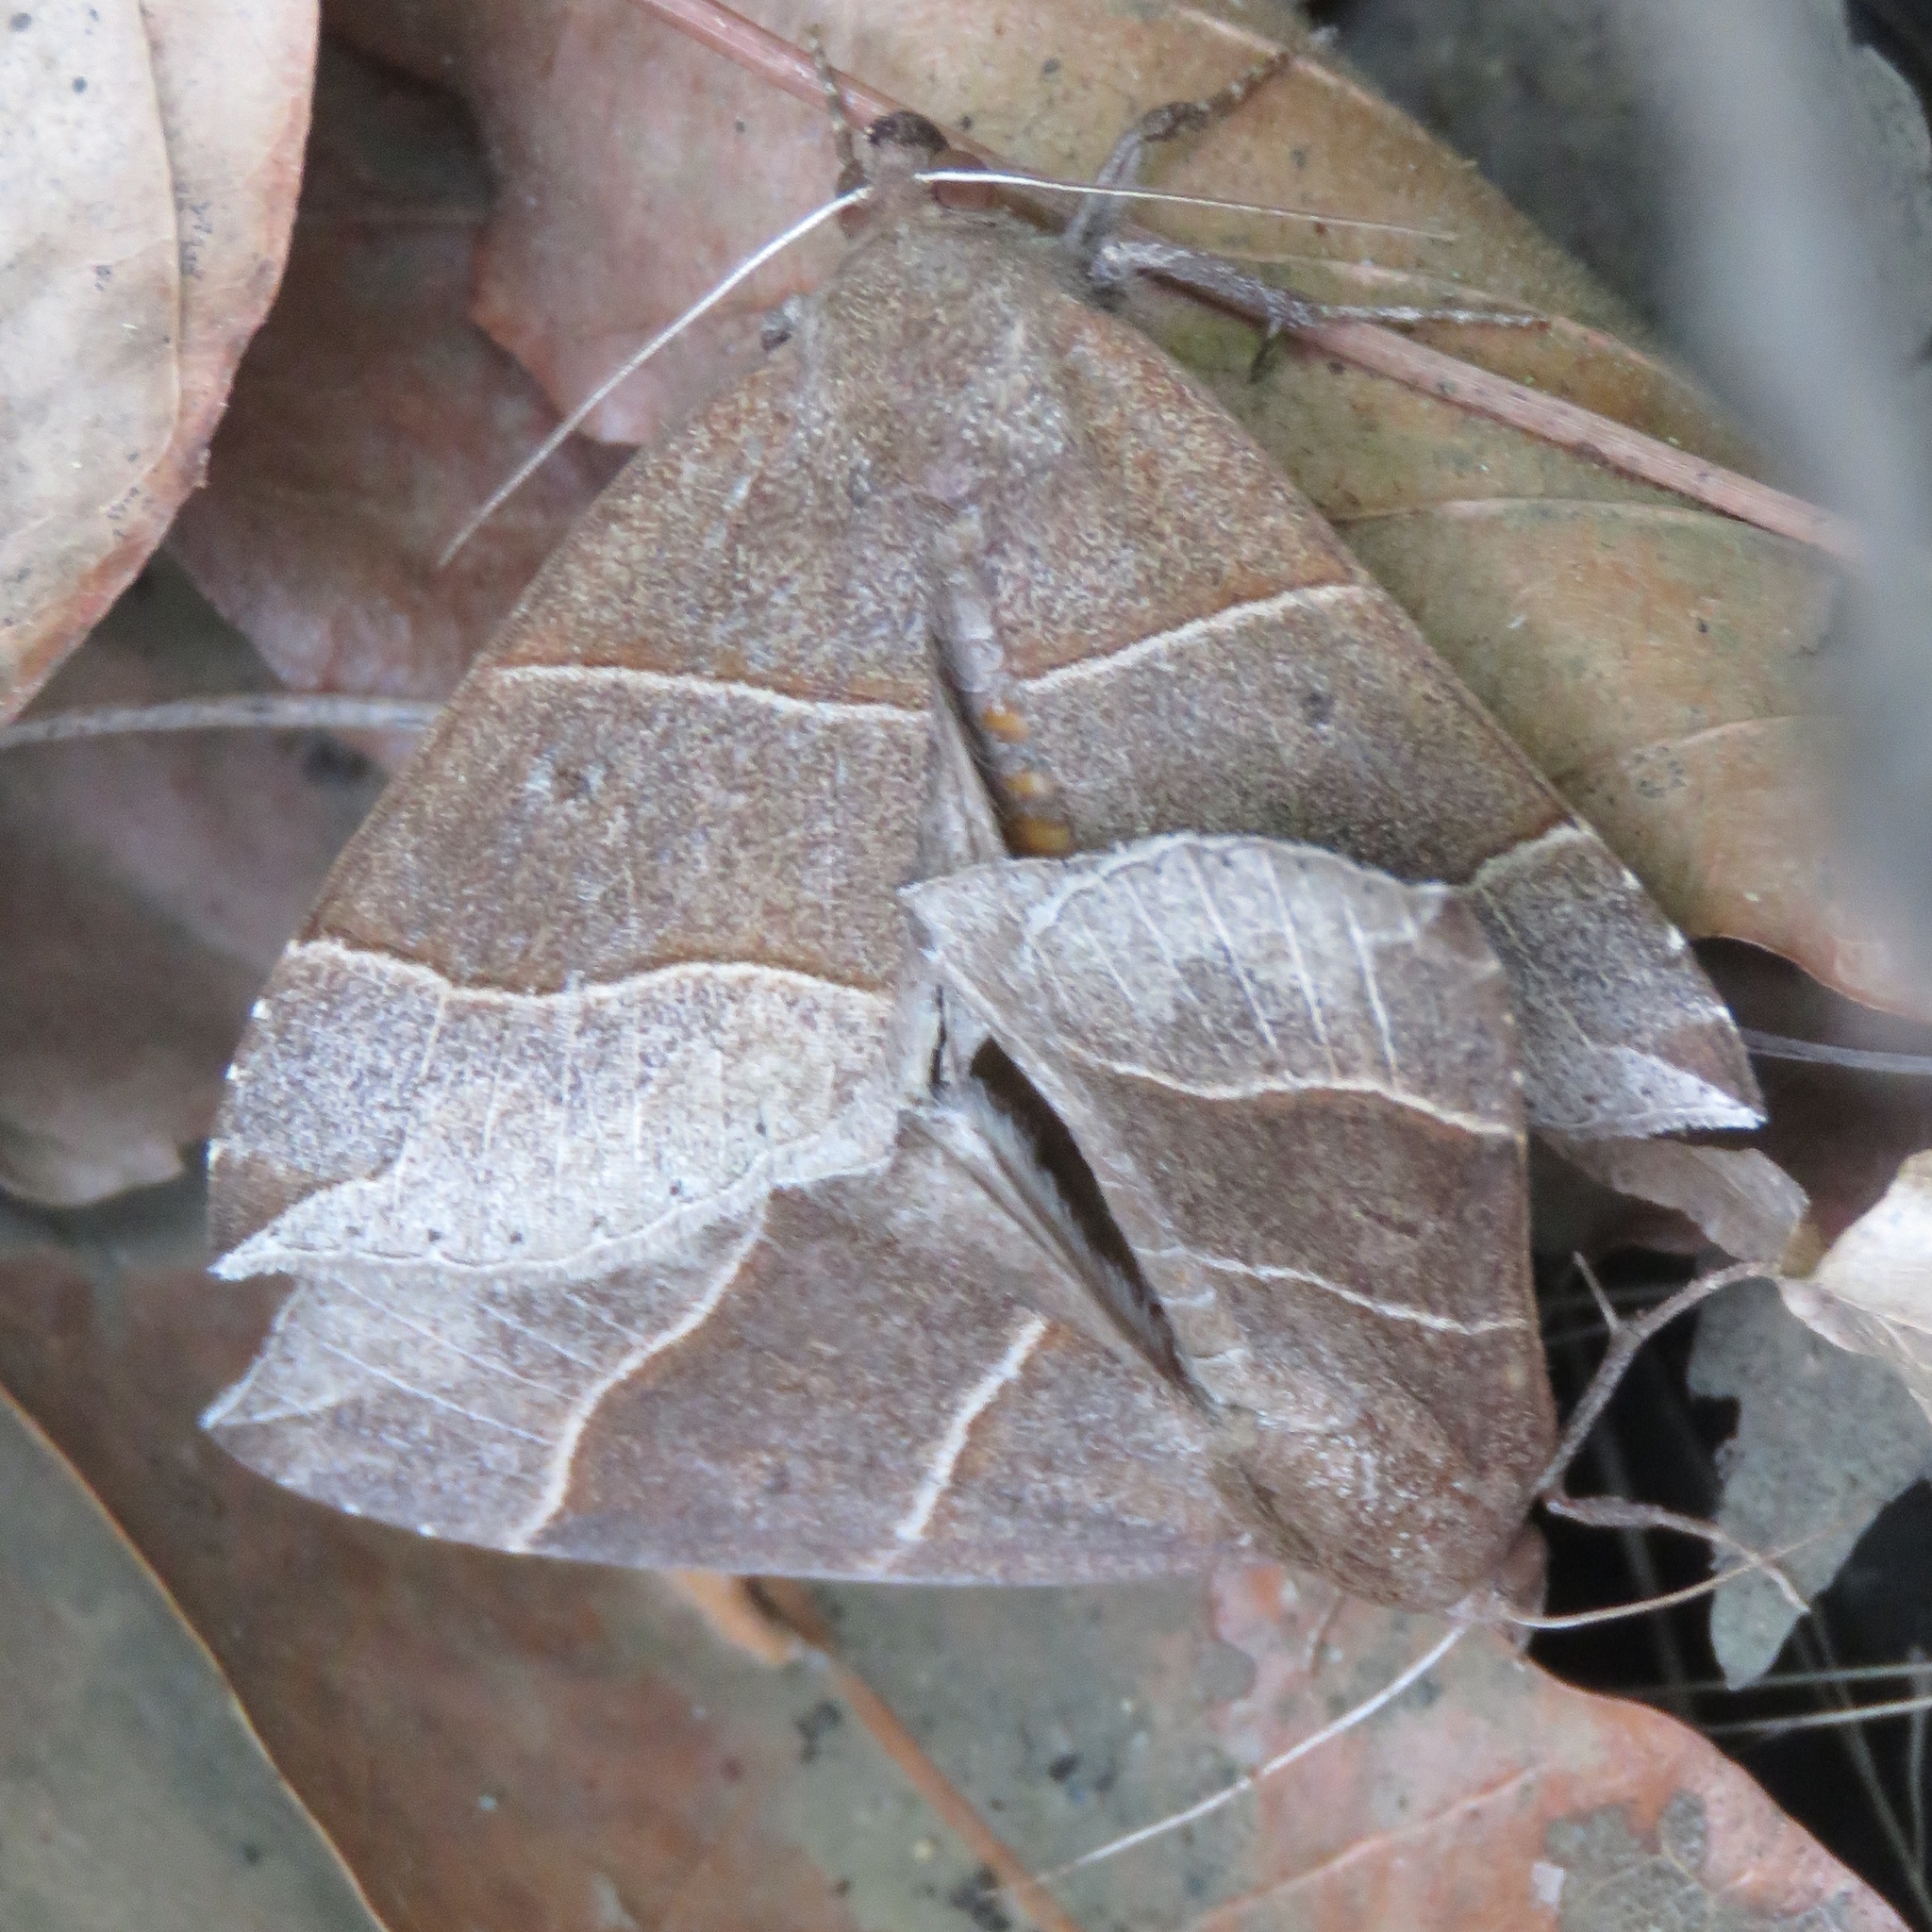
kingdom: Animalia
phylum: Arthropoda
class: Insecta
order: Lepidoptera
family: Erebidae
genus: Parallelia
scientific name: Parallelia bistriaris
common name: Maple looper moth
